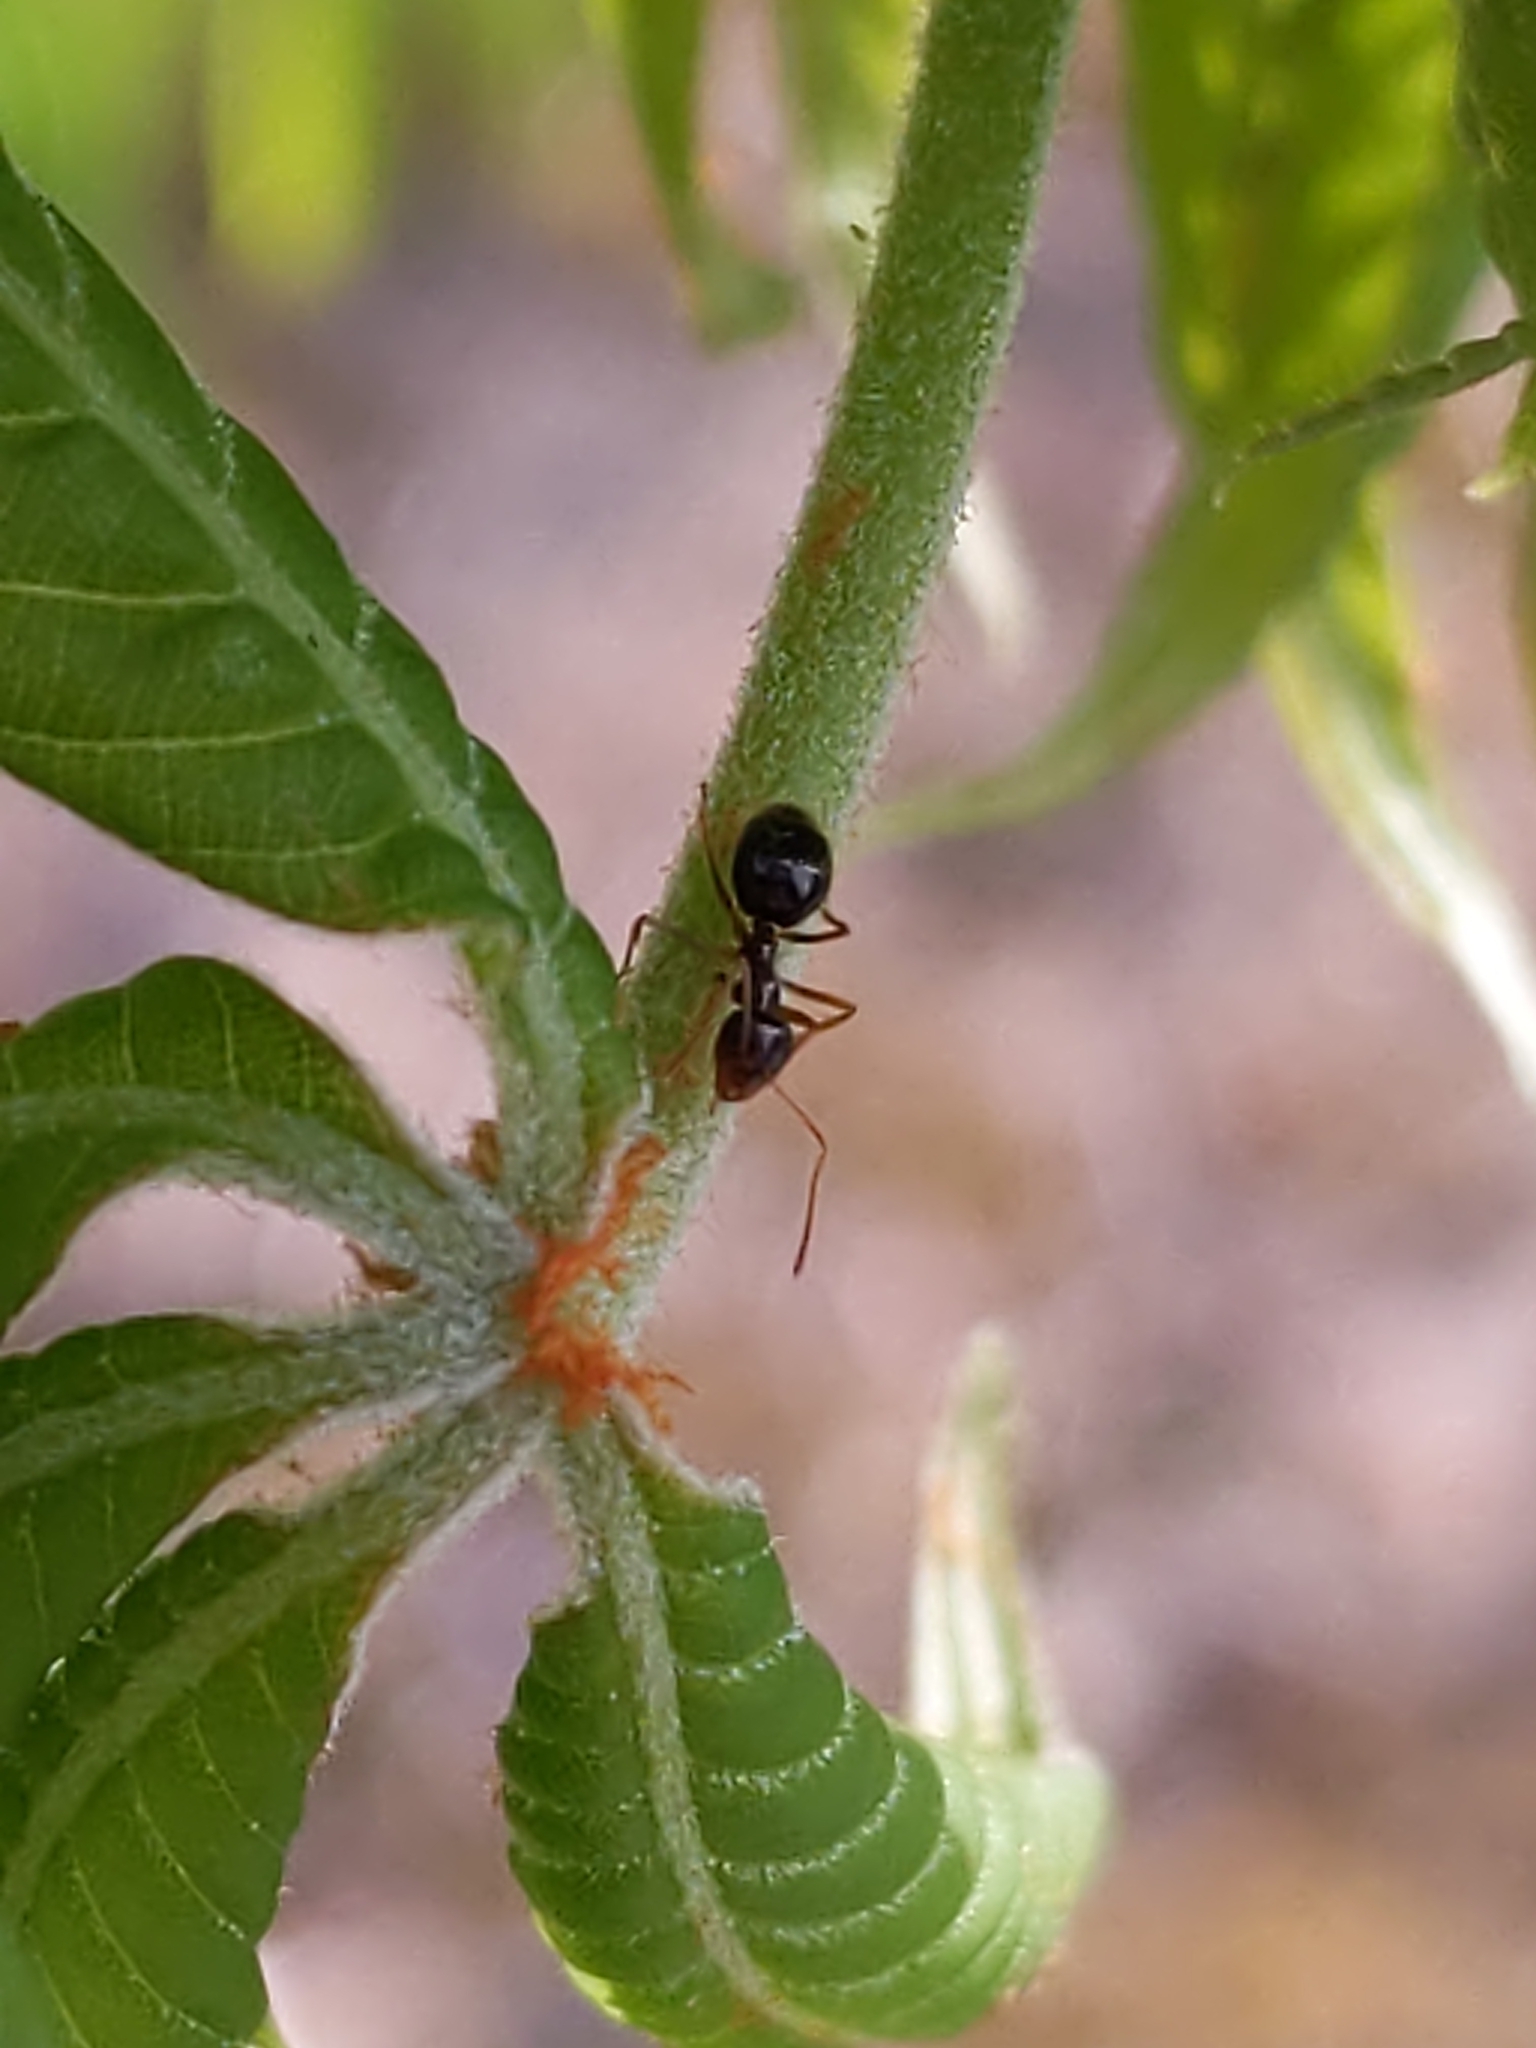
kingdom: Animalia
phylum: Arthropoda
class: Insecta
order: Hymenoptera
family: Formicidae
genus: Prenolepis
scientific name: Prenolepis imparis
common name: Small honey ant
